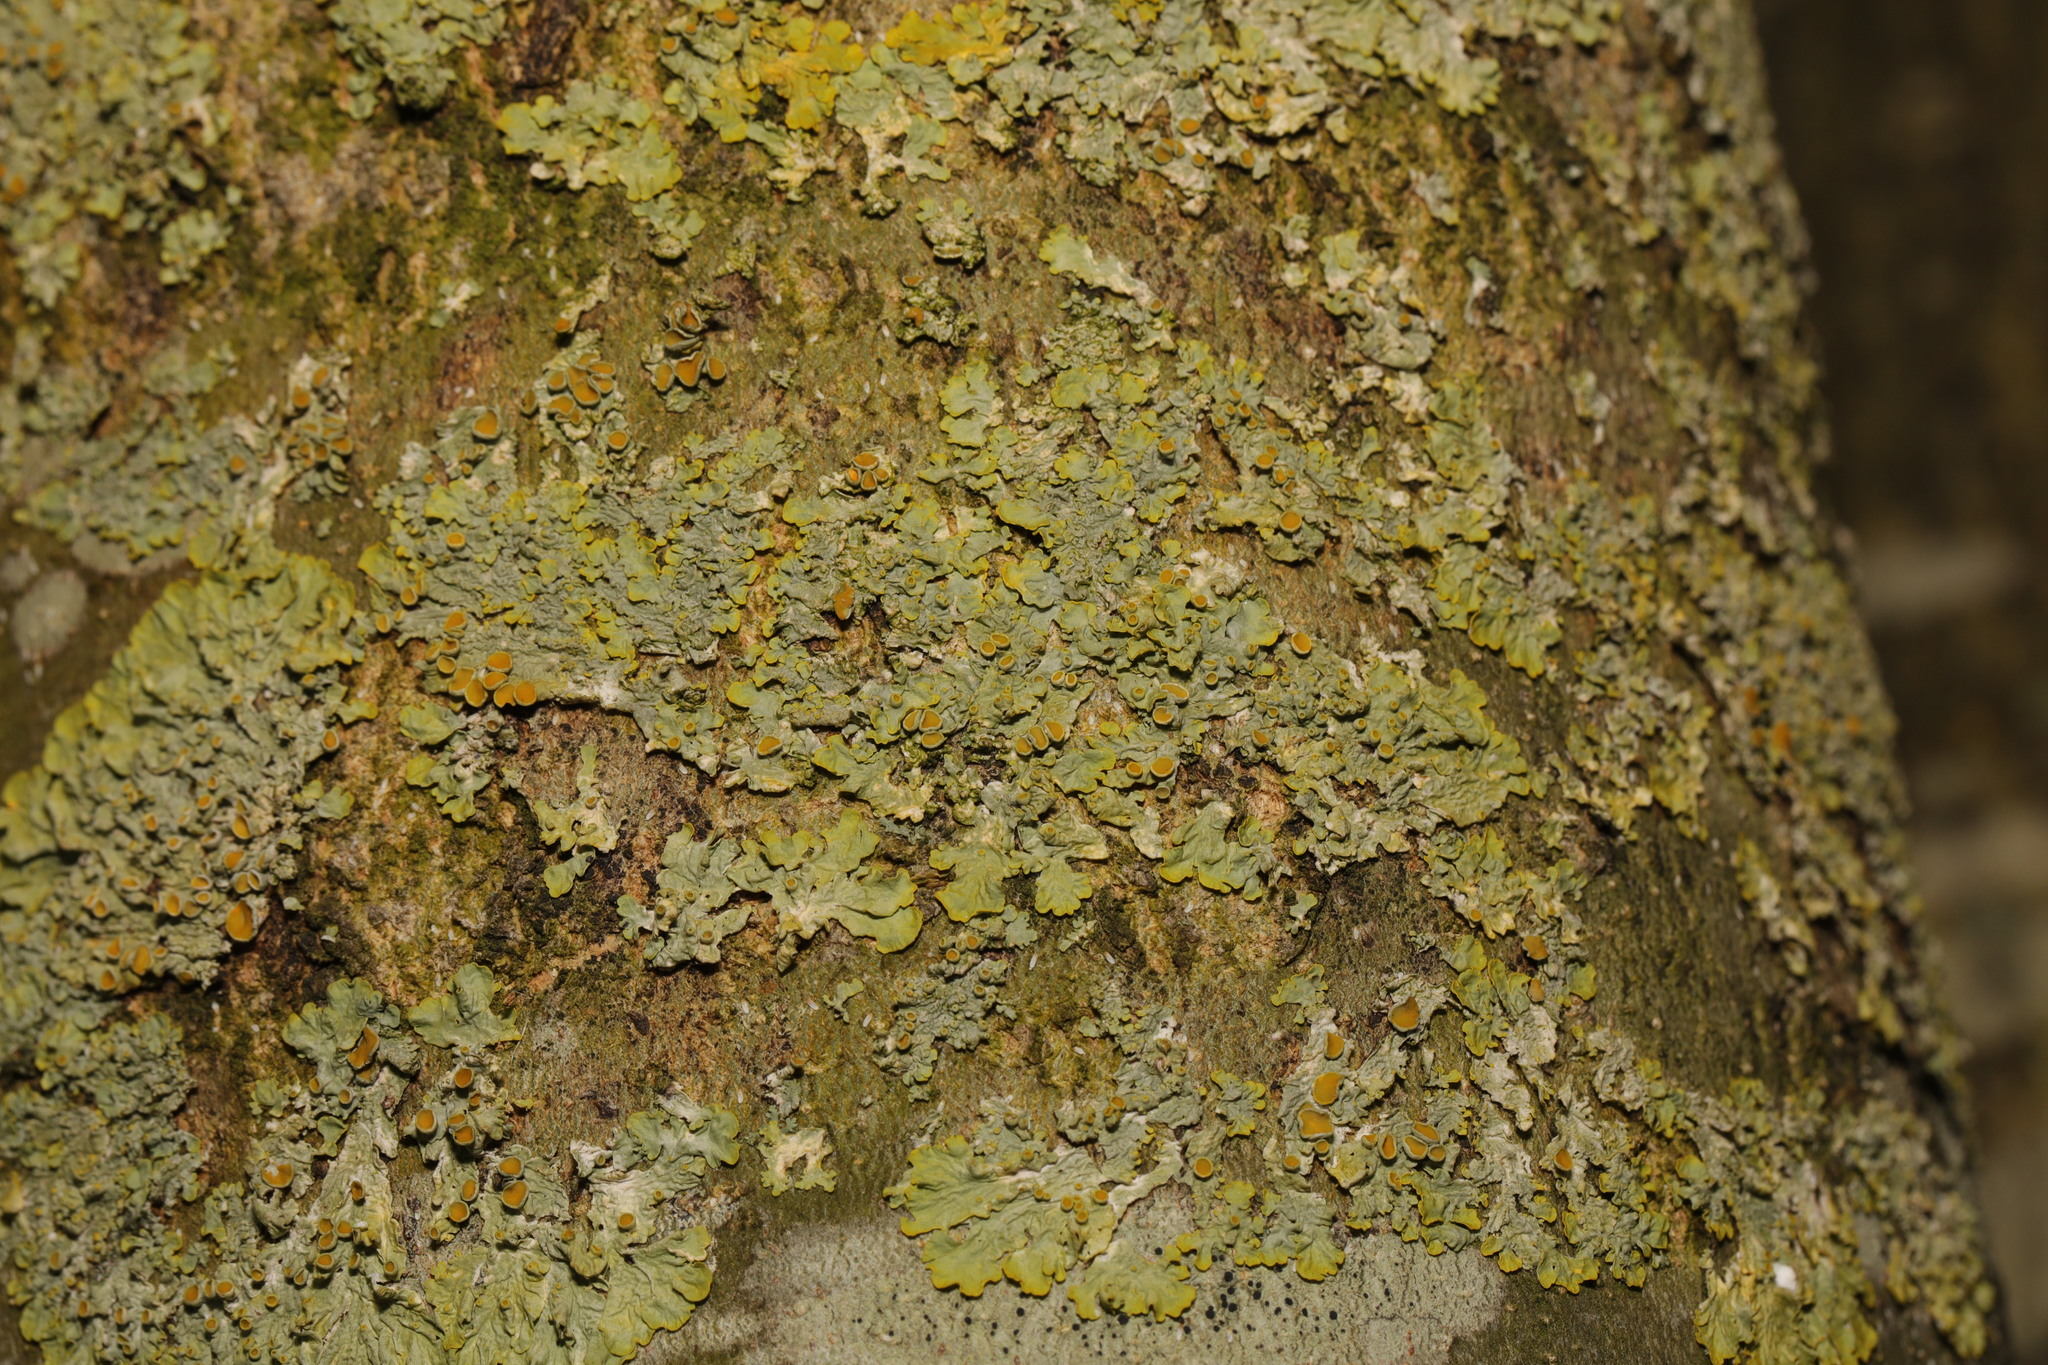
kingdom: Fungi
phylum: Ascomycota
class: Lecanoromycetes
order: Teloschistales
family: Teloschistaceae
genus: Xanthoria
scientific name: Xanthoria parietina
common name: Common orange lichen
